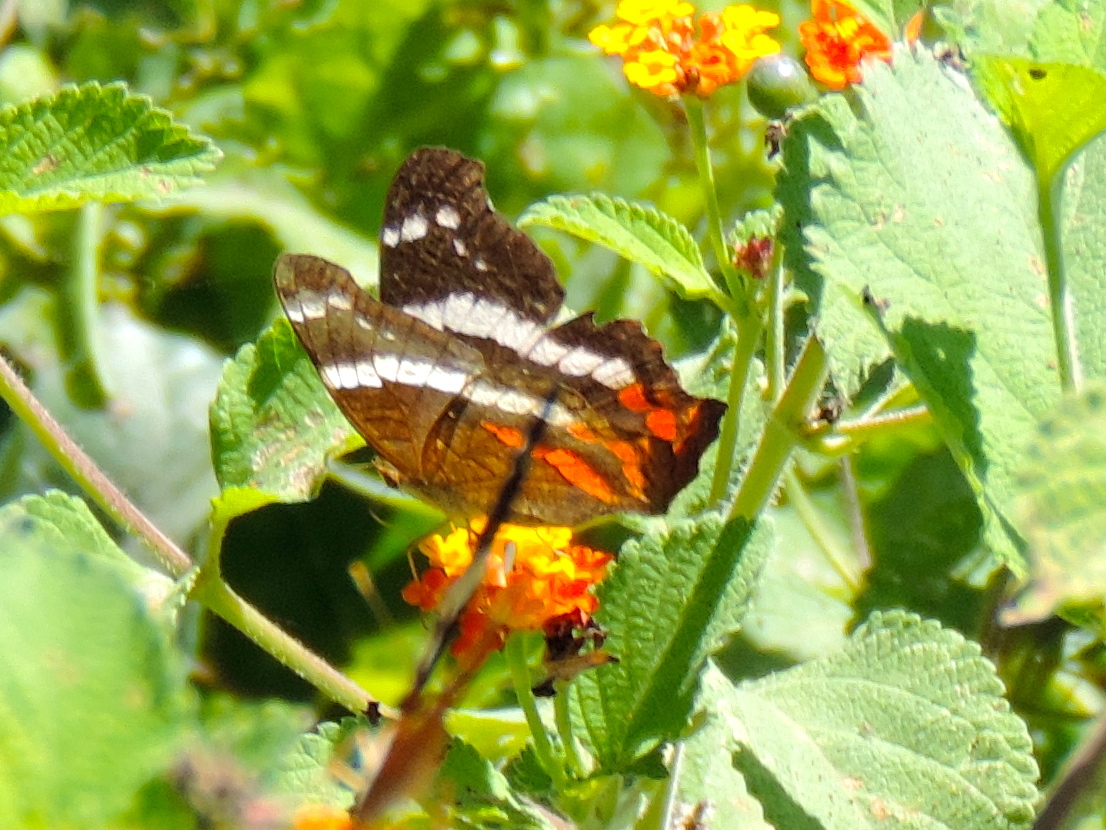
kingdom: Plantae
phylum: Tracheophyta
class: Magnoliopsida
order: Lamiales
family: Verbenaceae
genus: Lantana
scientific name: Lantana camara
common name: Lantana
